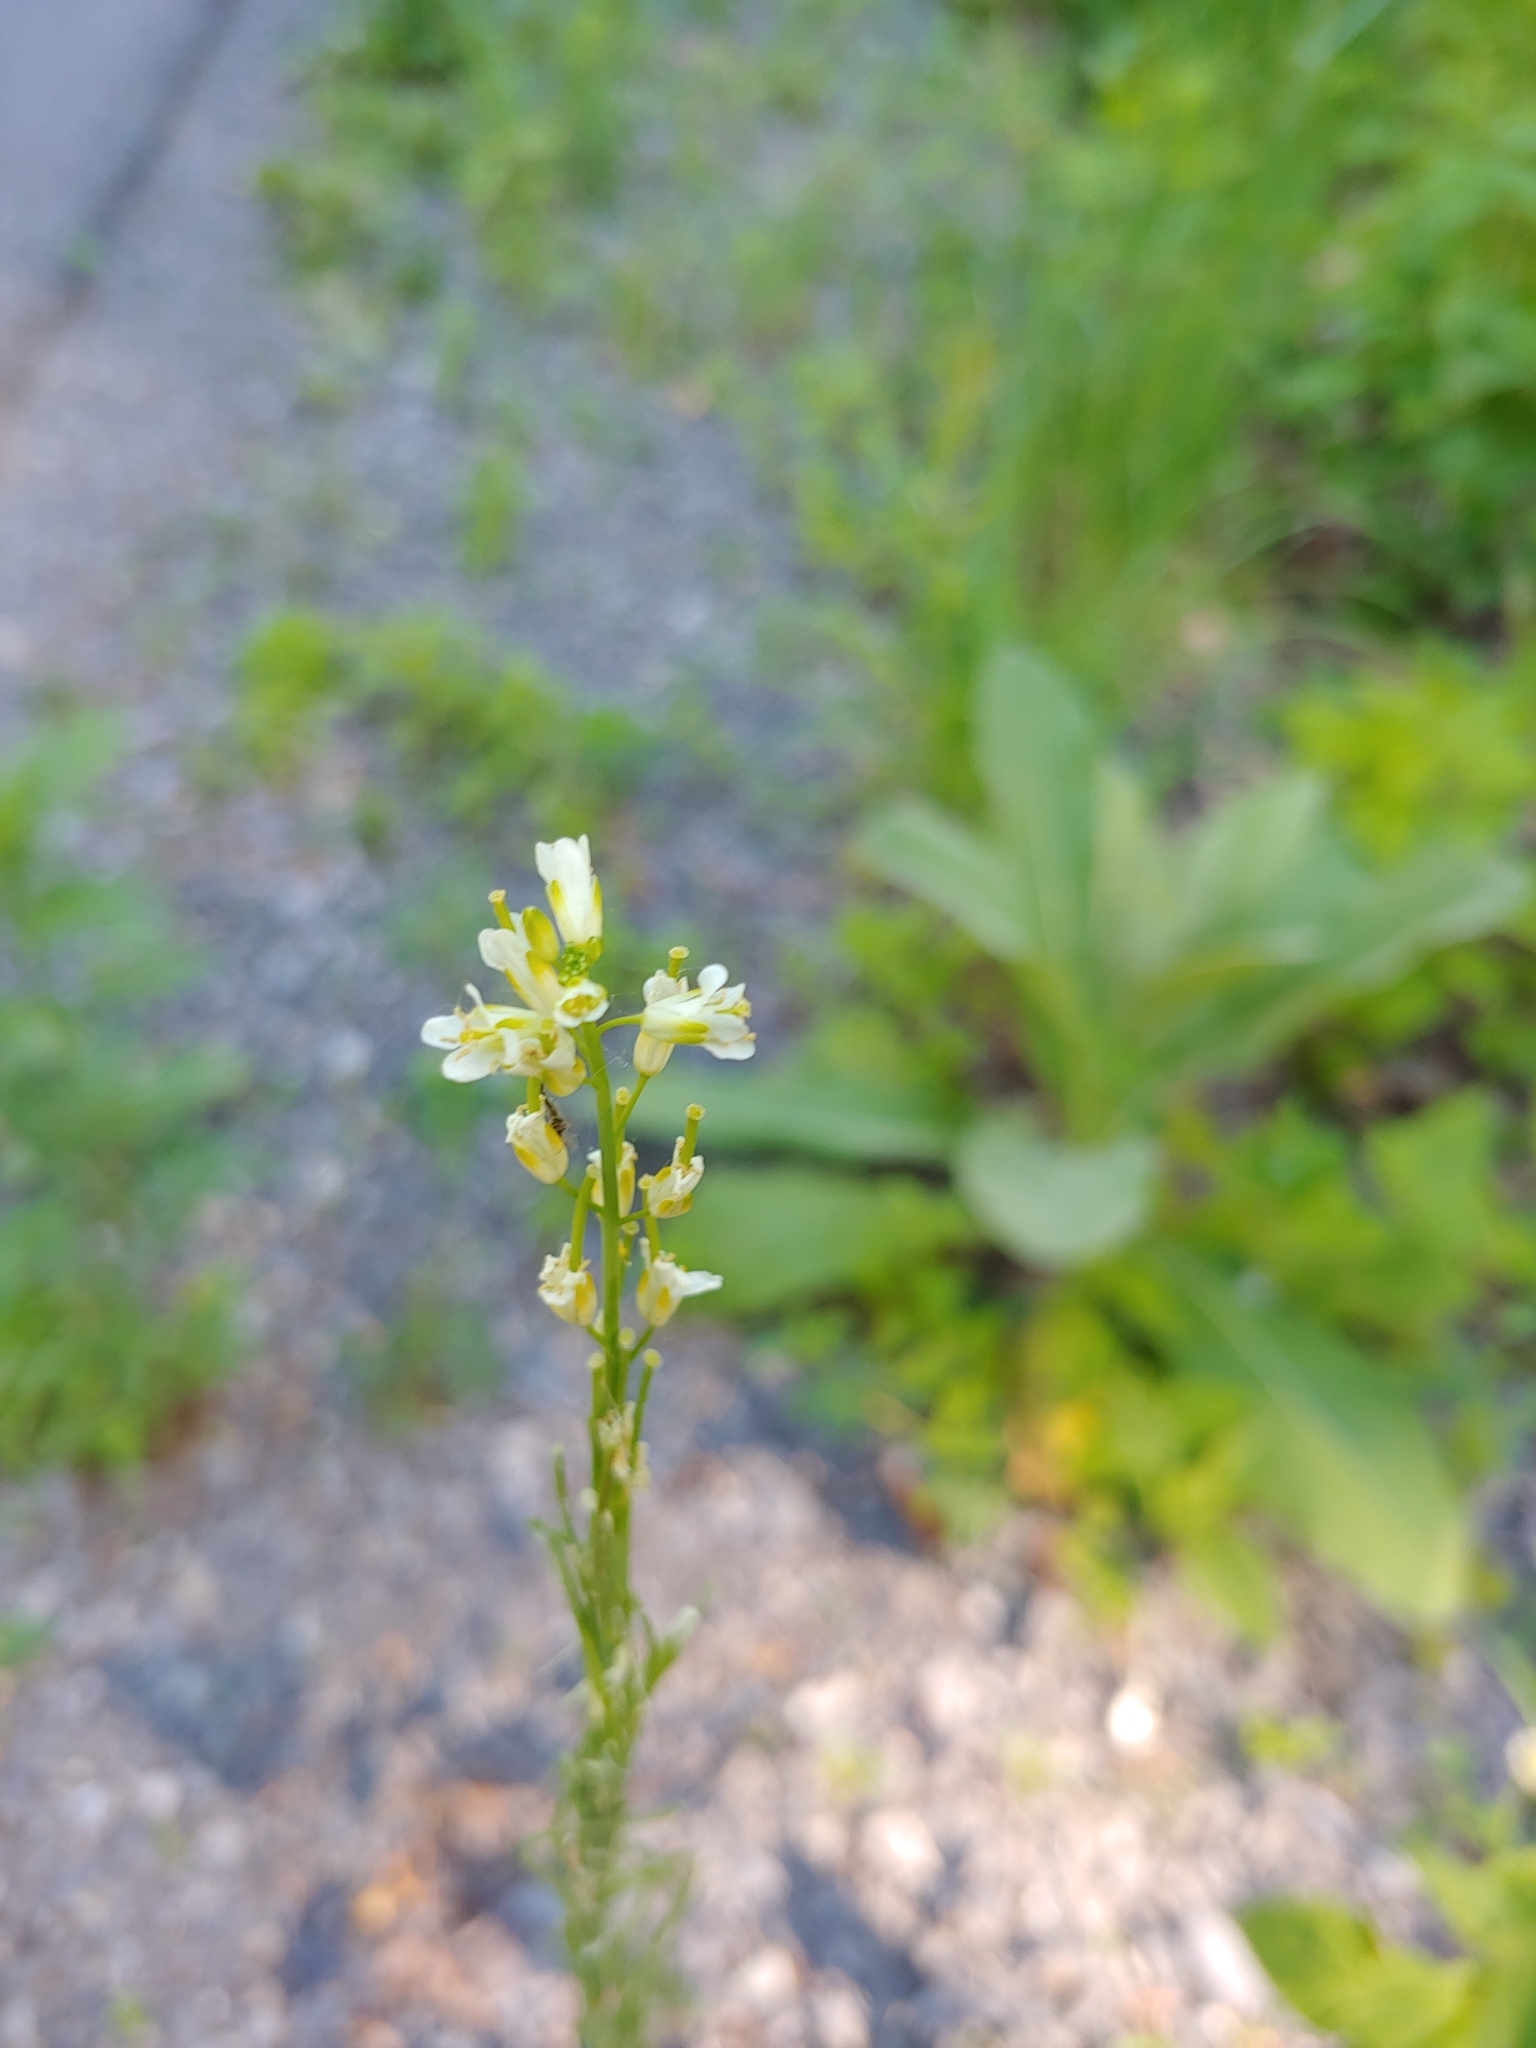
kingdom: Plantae
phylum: Tracheophyta
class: Magnoliopsida
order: Brassicales
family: Brassicaceae
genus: Turritis
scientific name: Turritis glabra
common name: Tower rockcress
